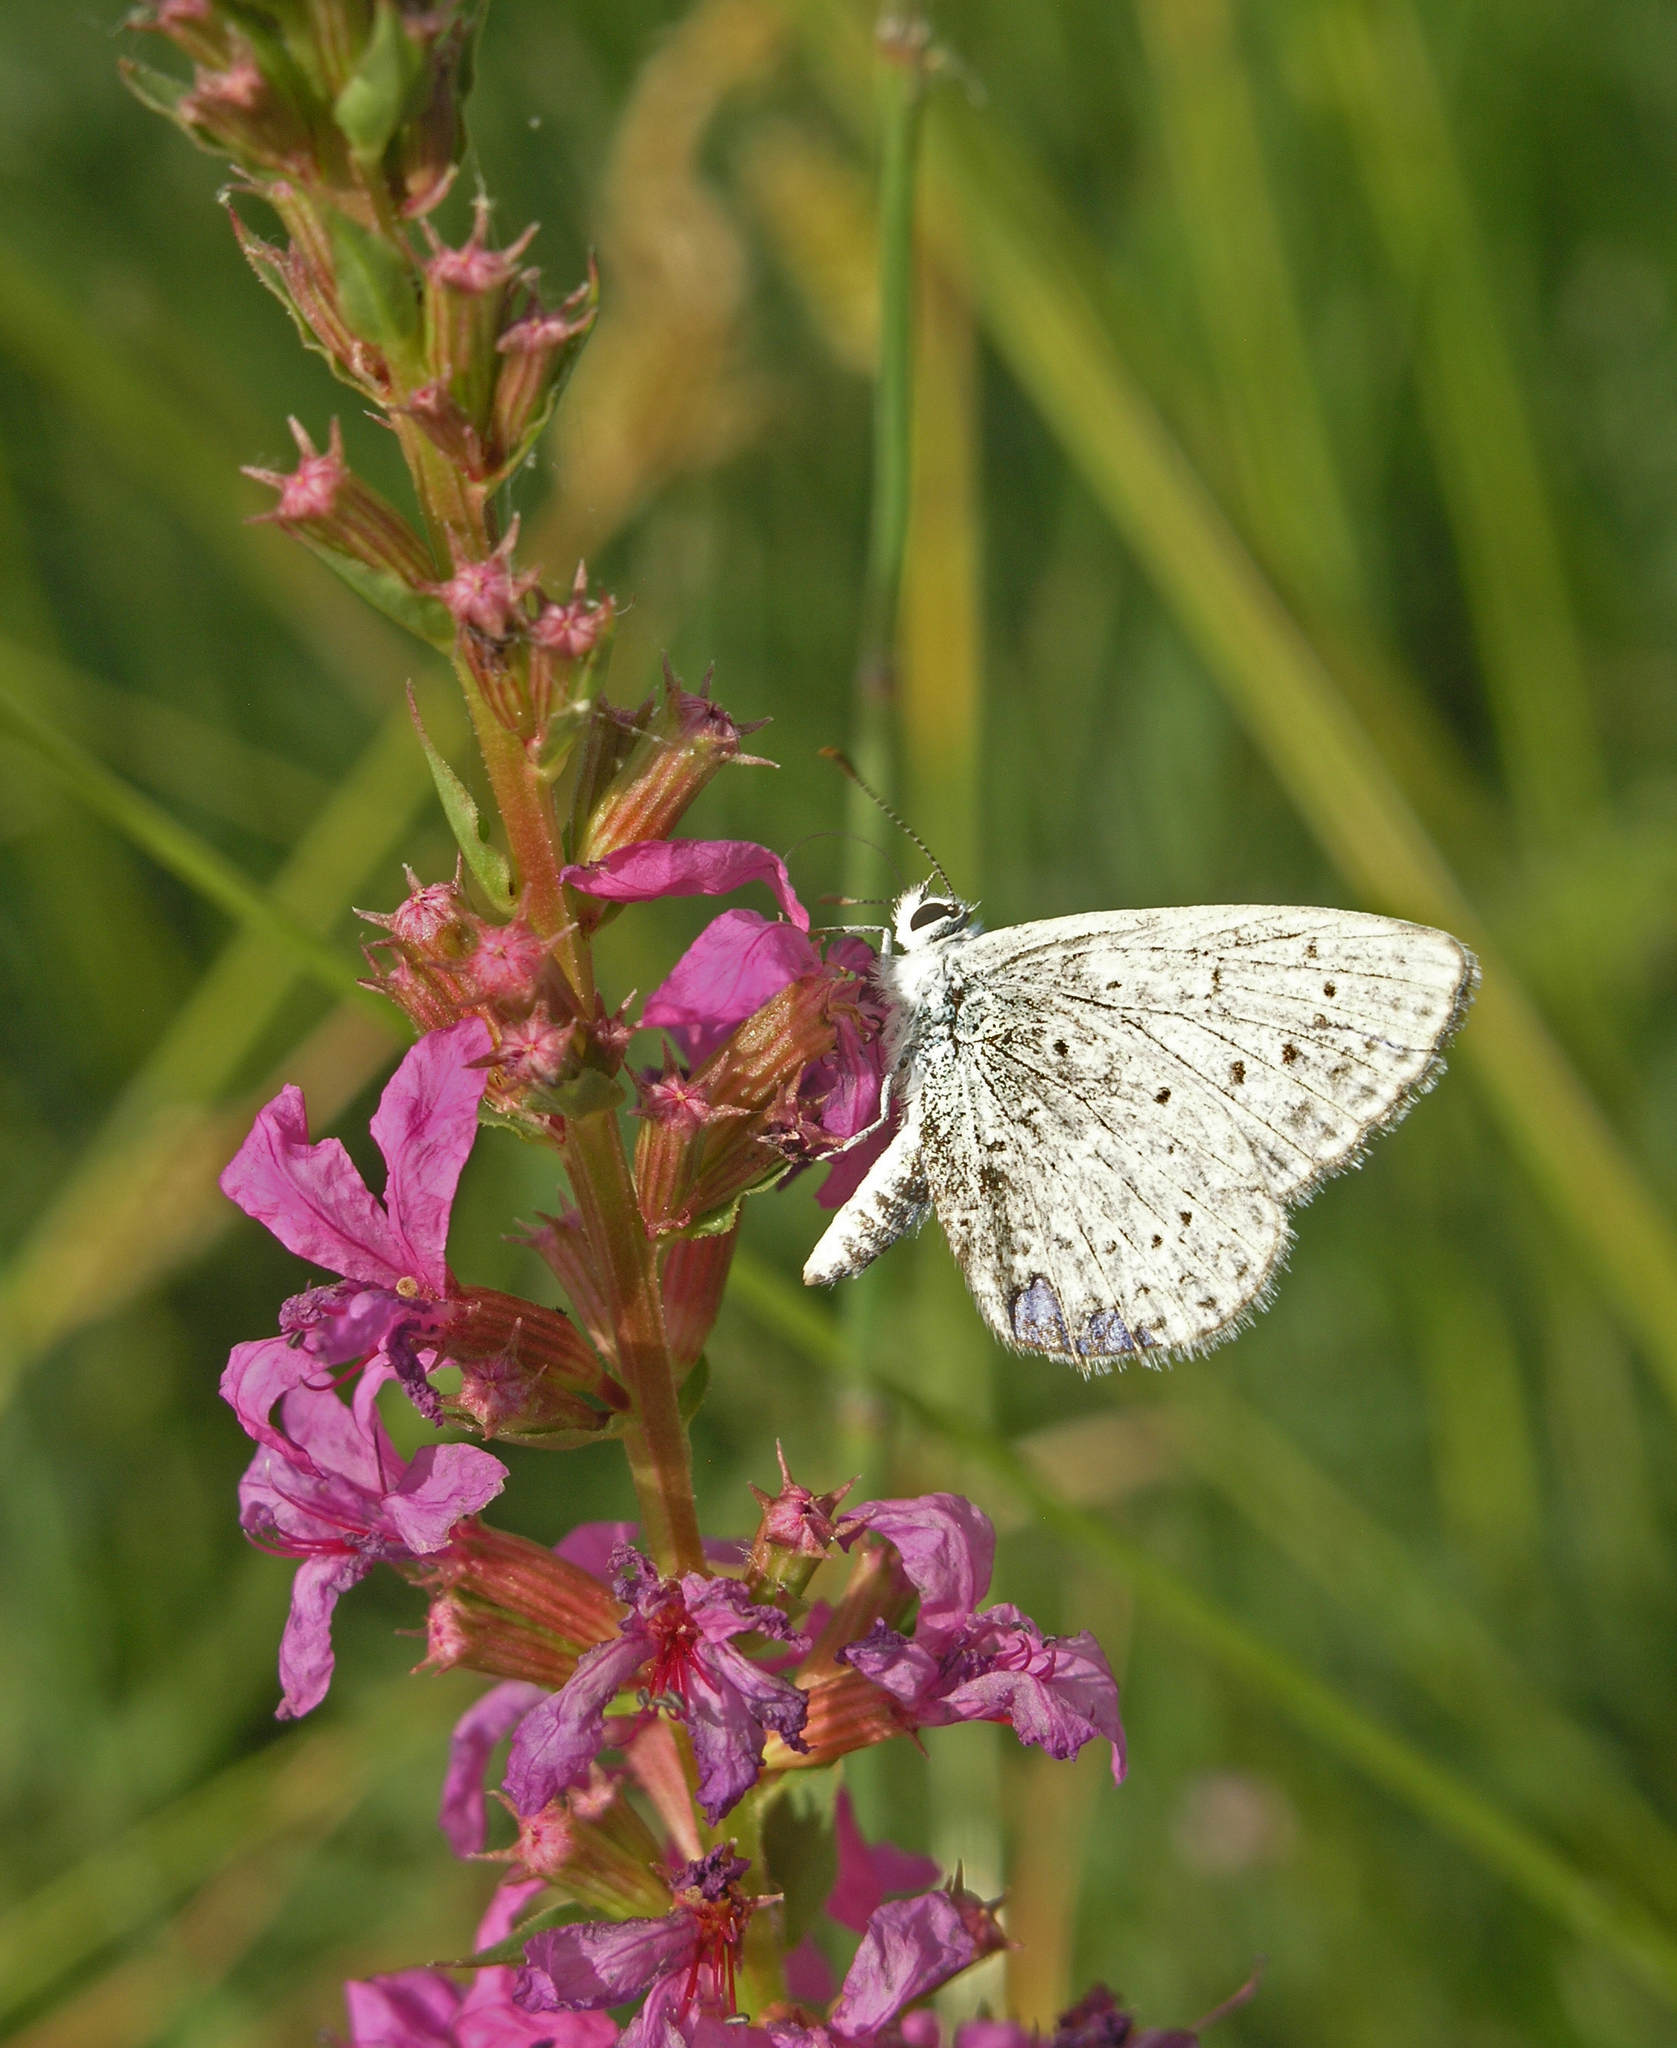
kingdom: Animalia
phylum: Arthropoda
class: Insecta
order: Lepidoptera
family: Lycaenidae
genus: Cupido
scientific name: Cupido prosecusa
